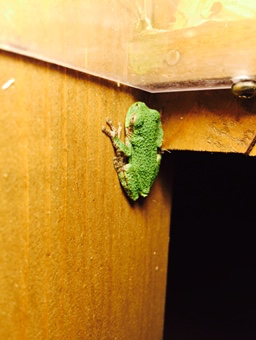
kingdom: Animalia
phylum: Chordata
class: Amphibia
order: Anura
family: Hylidae
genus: Dryophytes
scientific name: Dryophytes versicolor
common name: Gray treefrog
